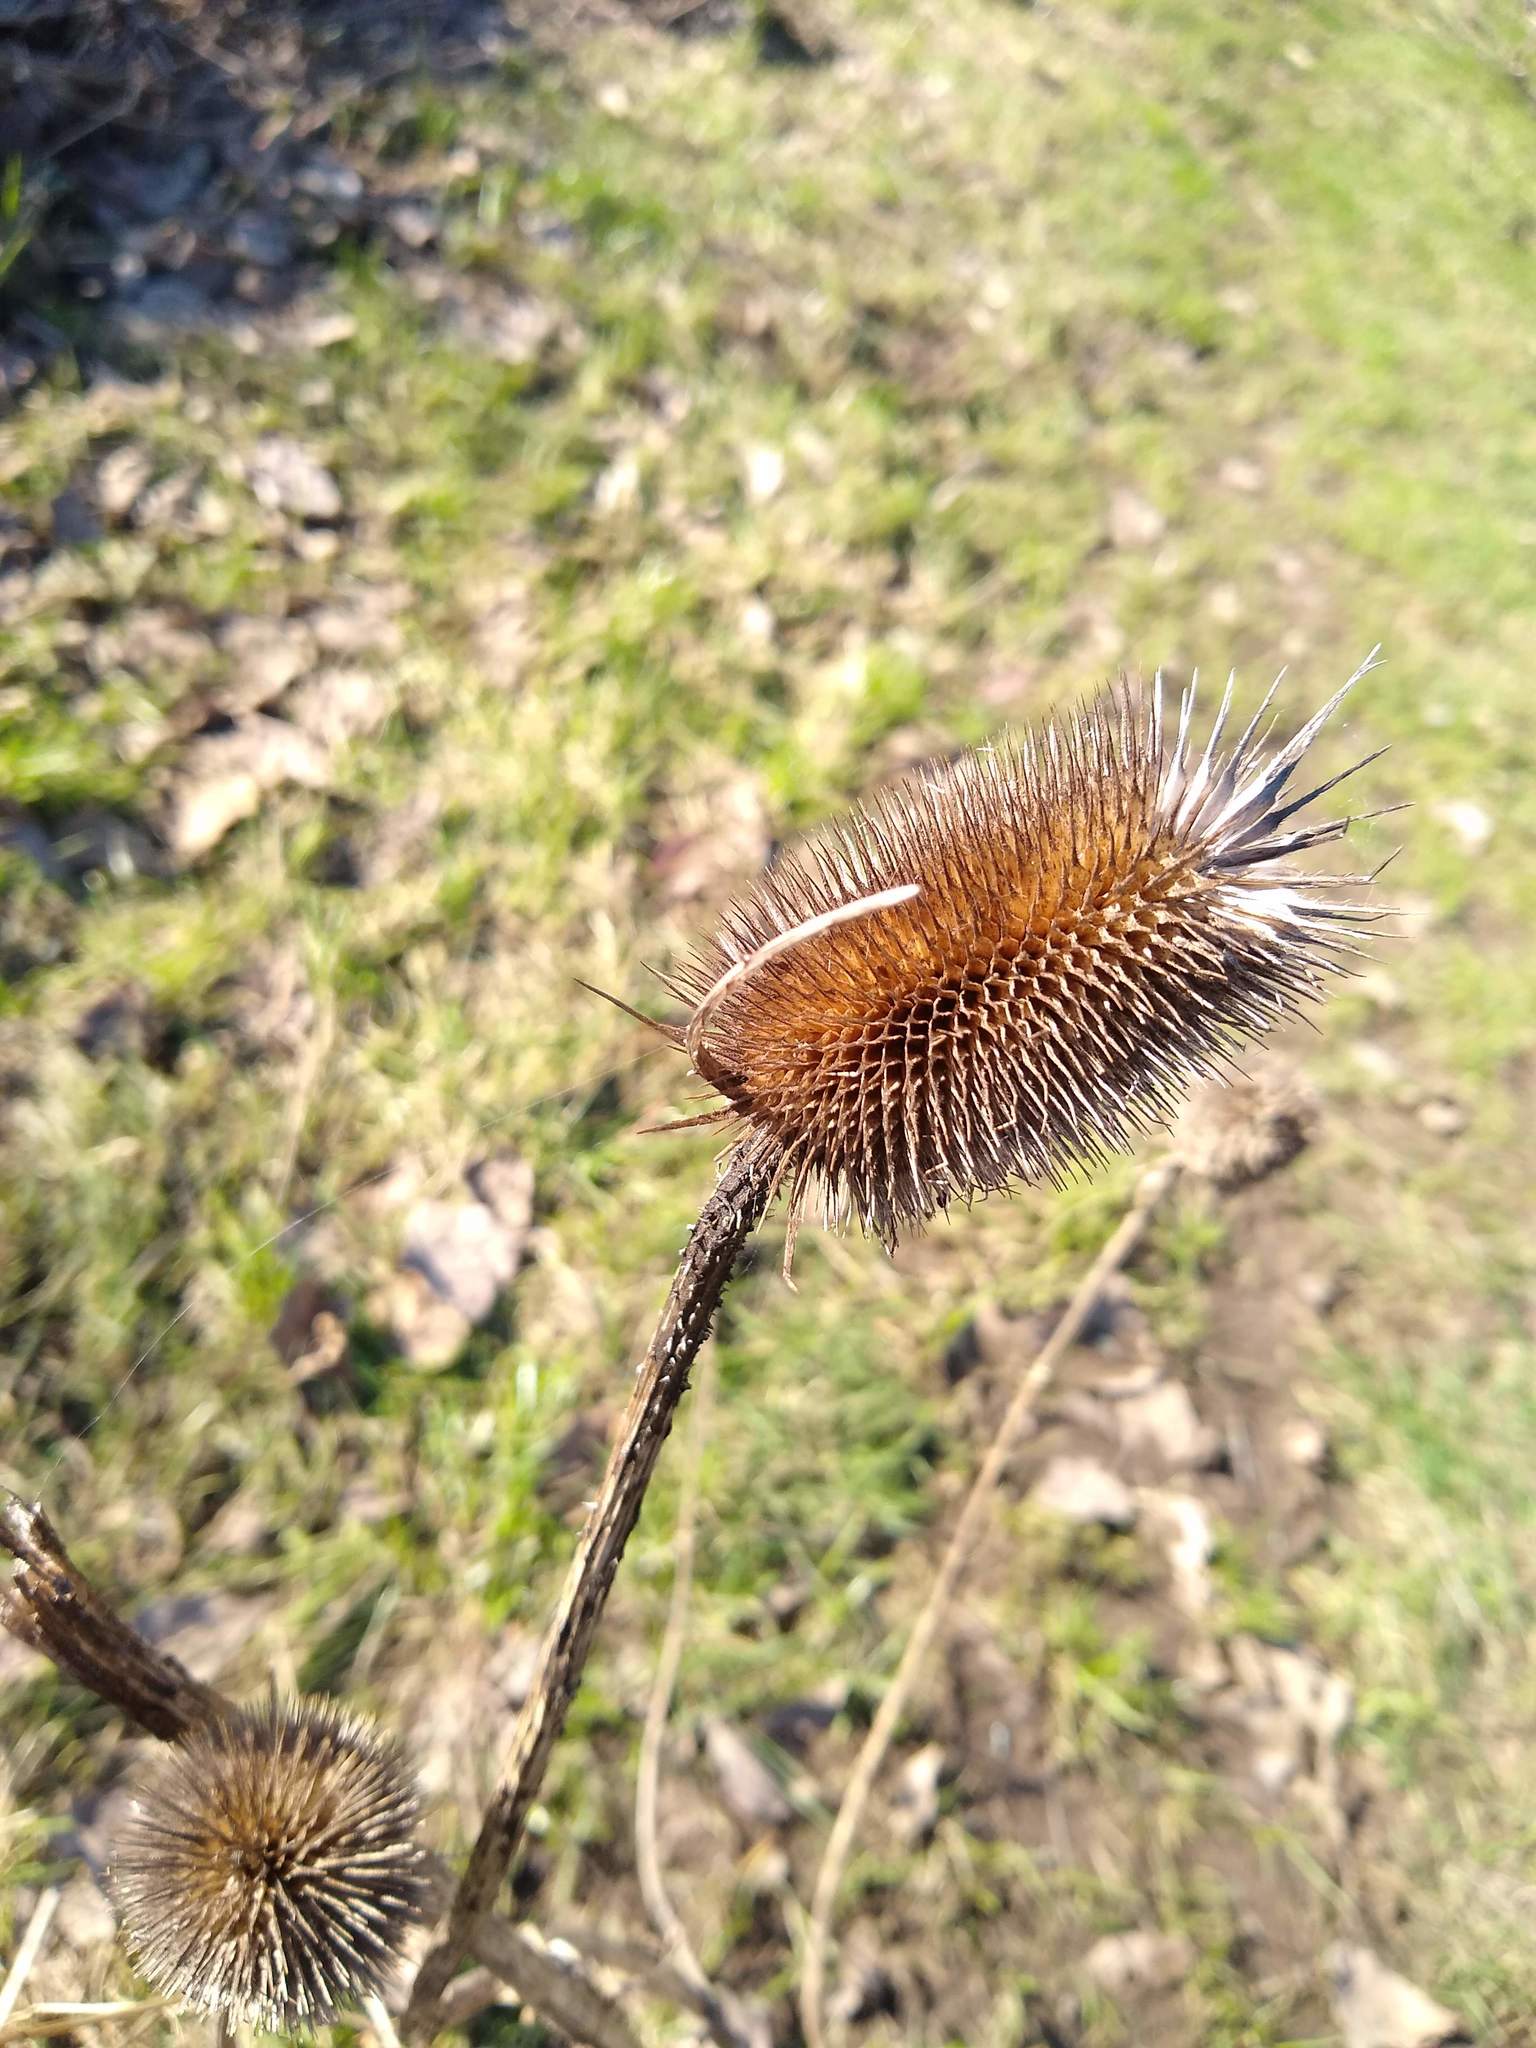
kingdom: Plantae
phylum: Tracheophyta
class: Magnoliopsida
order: Dipsacales
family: Caprifoliaceae
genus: Dipsacus
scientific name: Dipsacus fullonum
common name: Teasel
